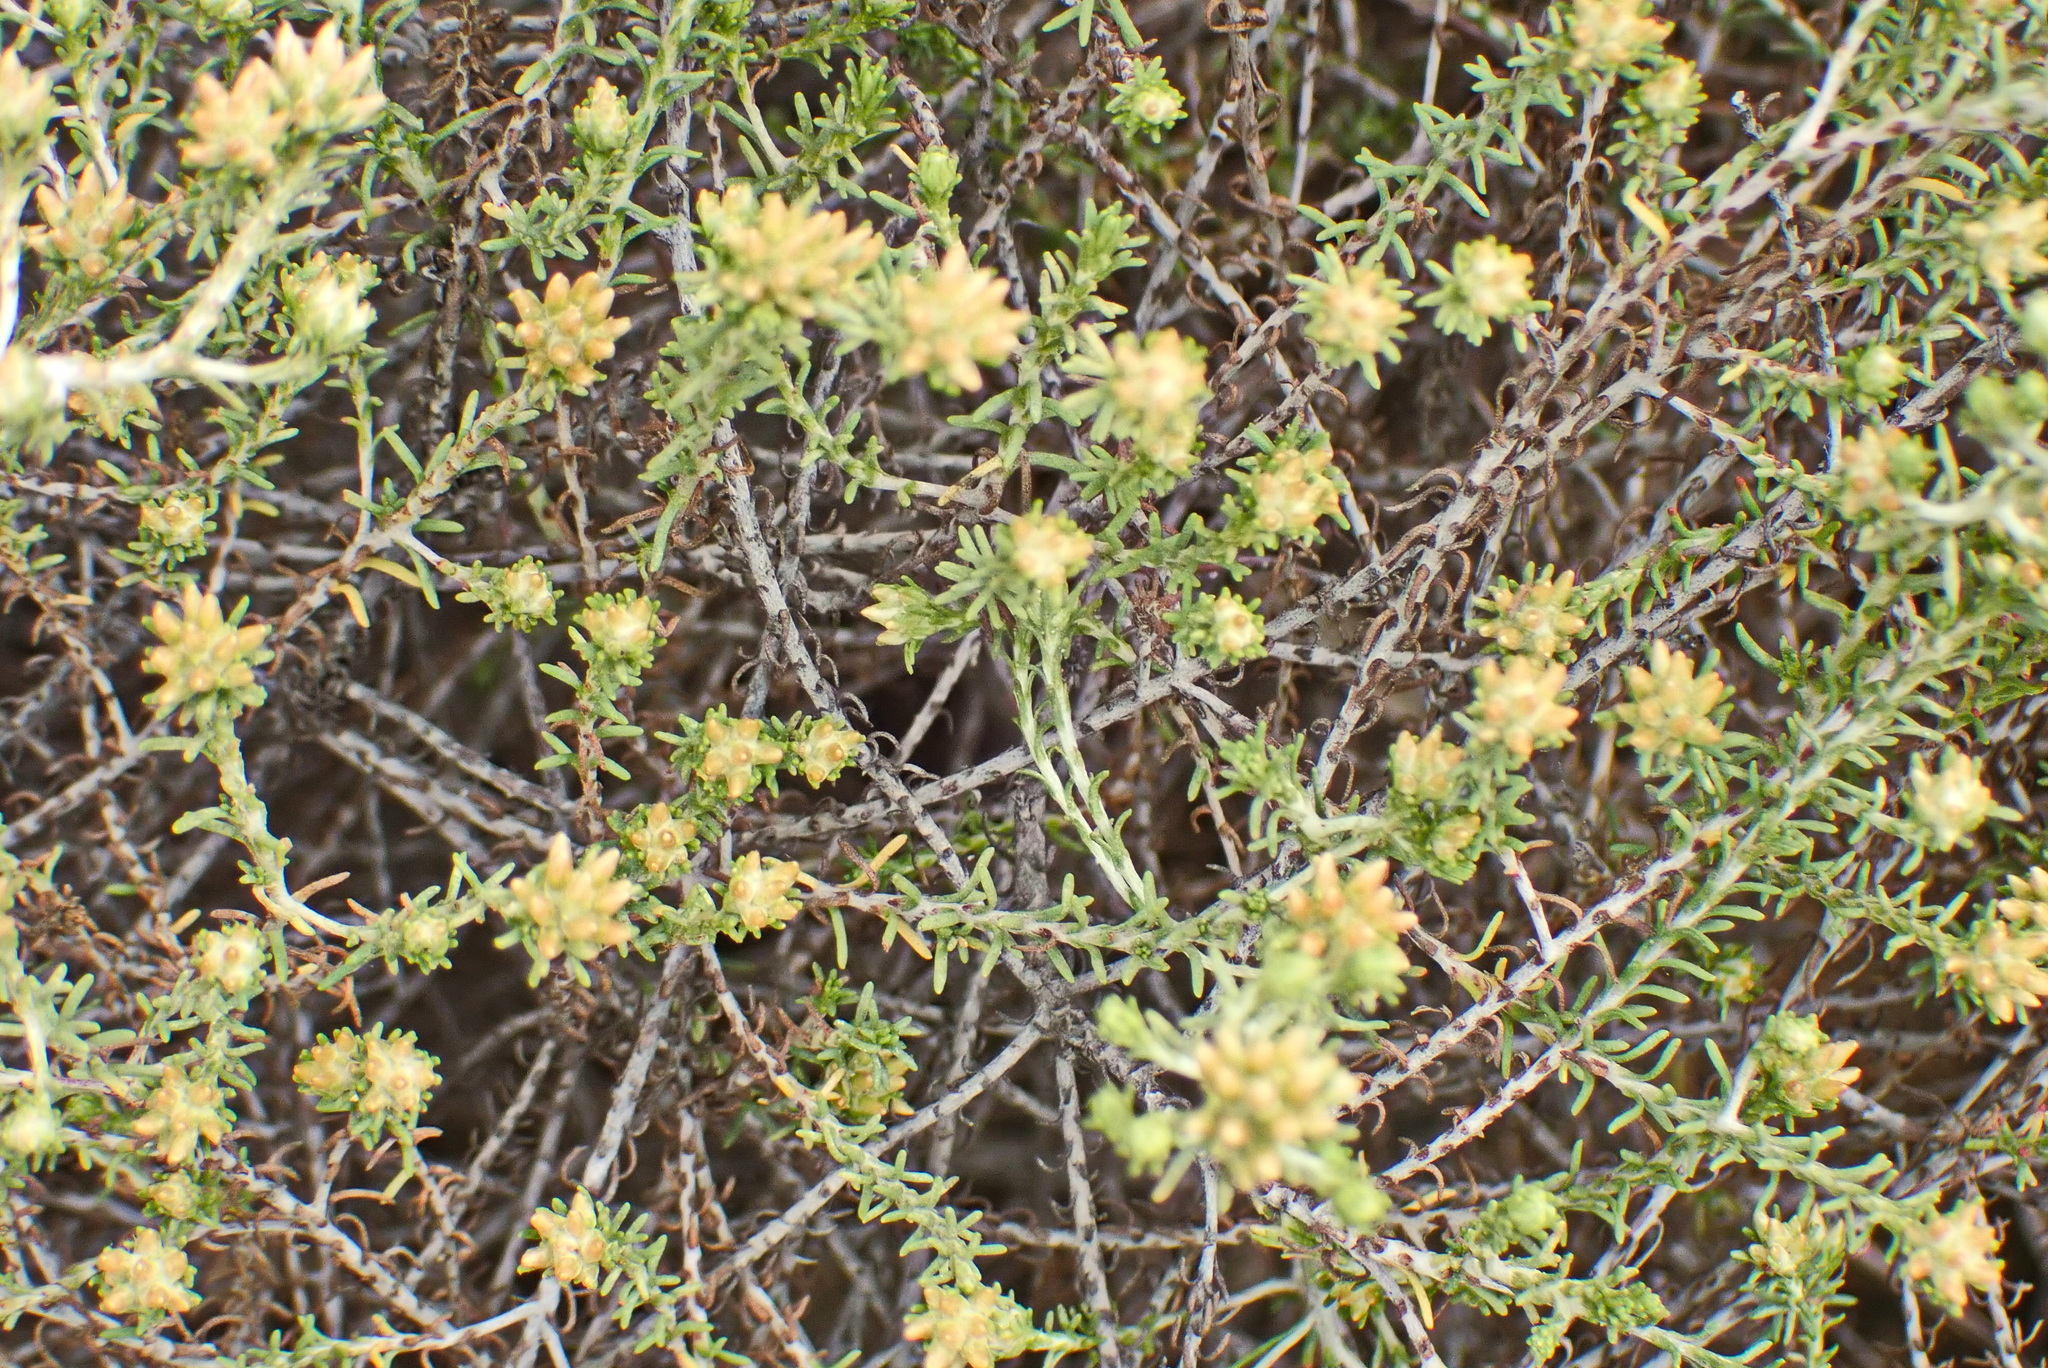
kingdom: Plantae
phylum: Tracheophyta
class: Magnoliopsida
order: Asterales
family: Asteraceae
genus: Helichrysum
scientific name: Helichrysum asperum
